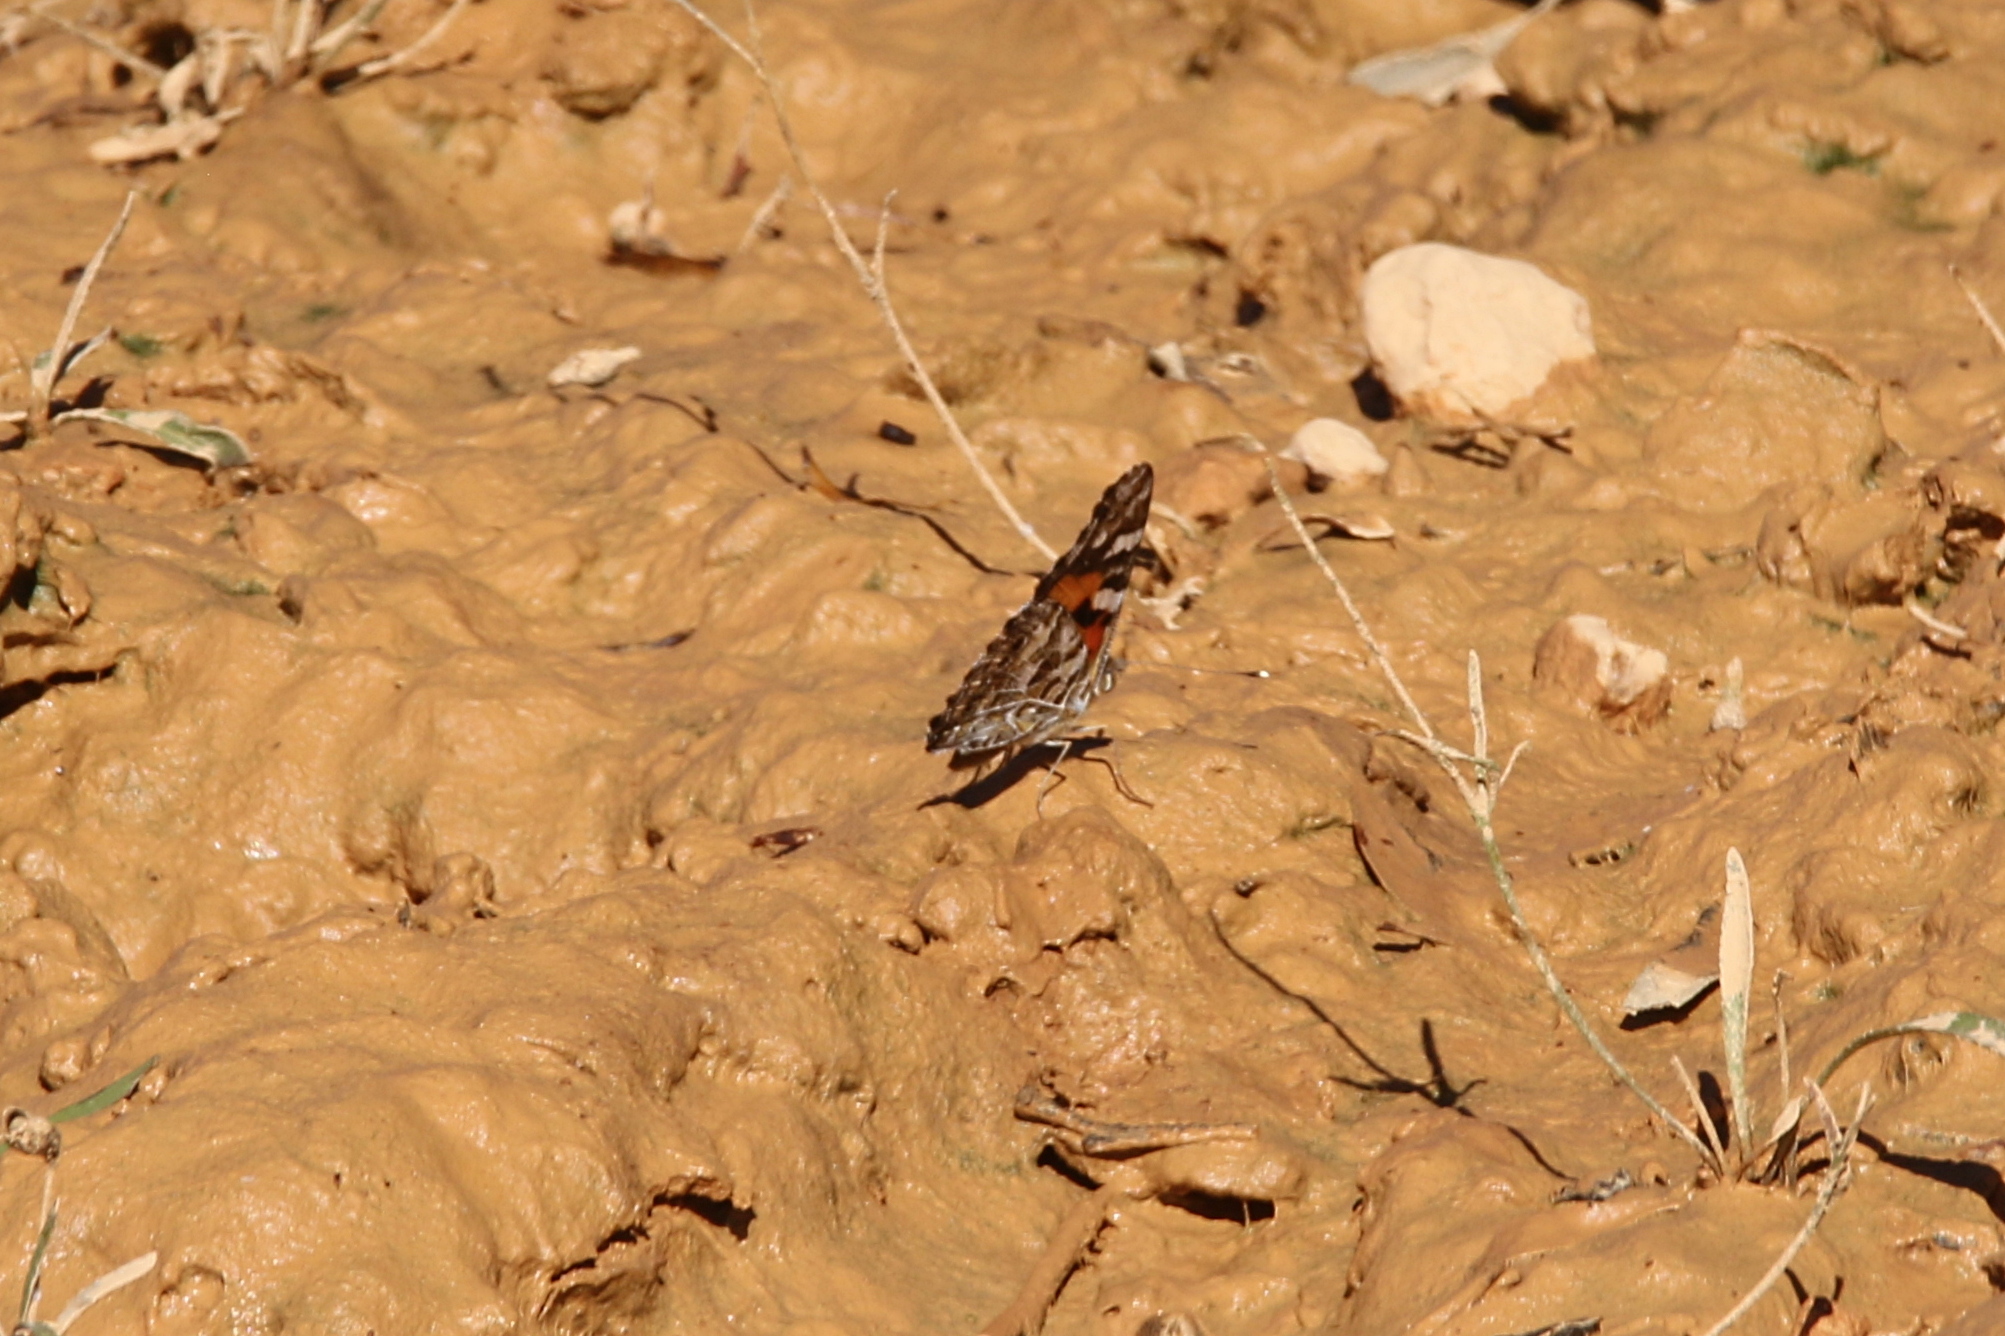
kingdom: Animalia
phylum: Arthropoda
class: Insecta
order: Lepidoptera
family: Nymphalidae
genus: Vanessa
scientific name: Vanessa kershawi
